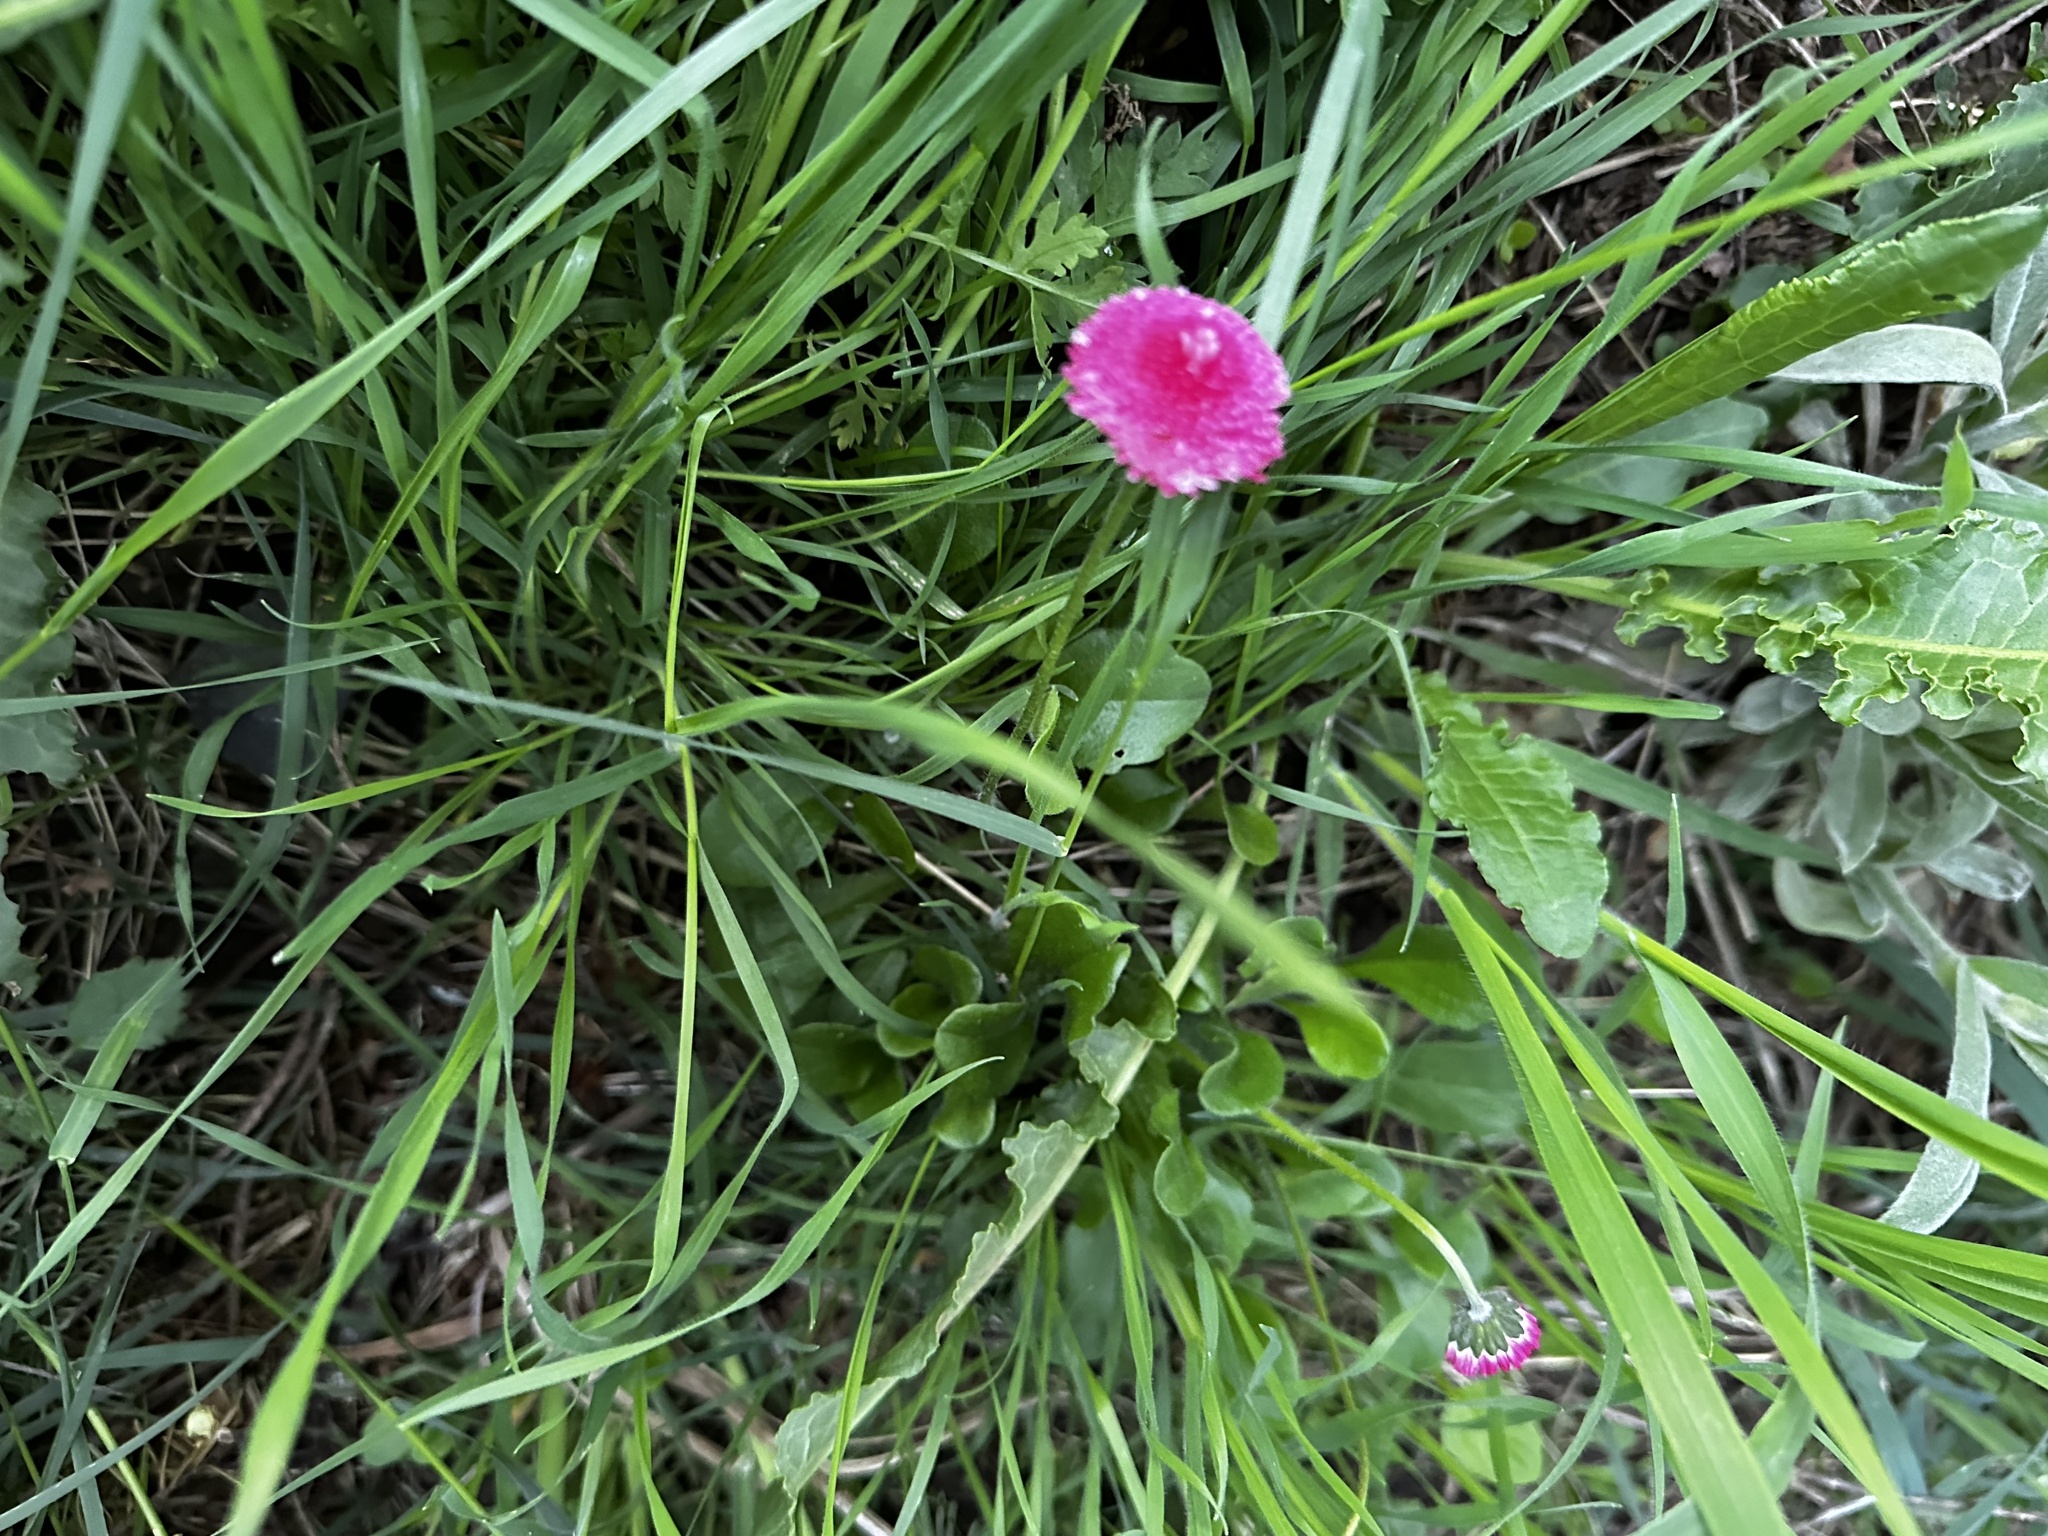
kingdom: Plantae
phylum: Tracheophyta
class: Magnoliopsida
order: Asterales
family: Asteraceae
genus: Bellis
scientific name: Bellis perennis
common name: Lawndaisy
